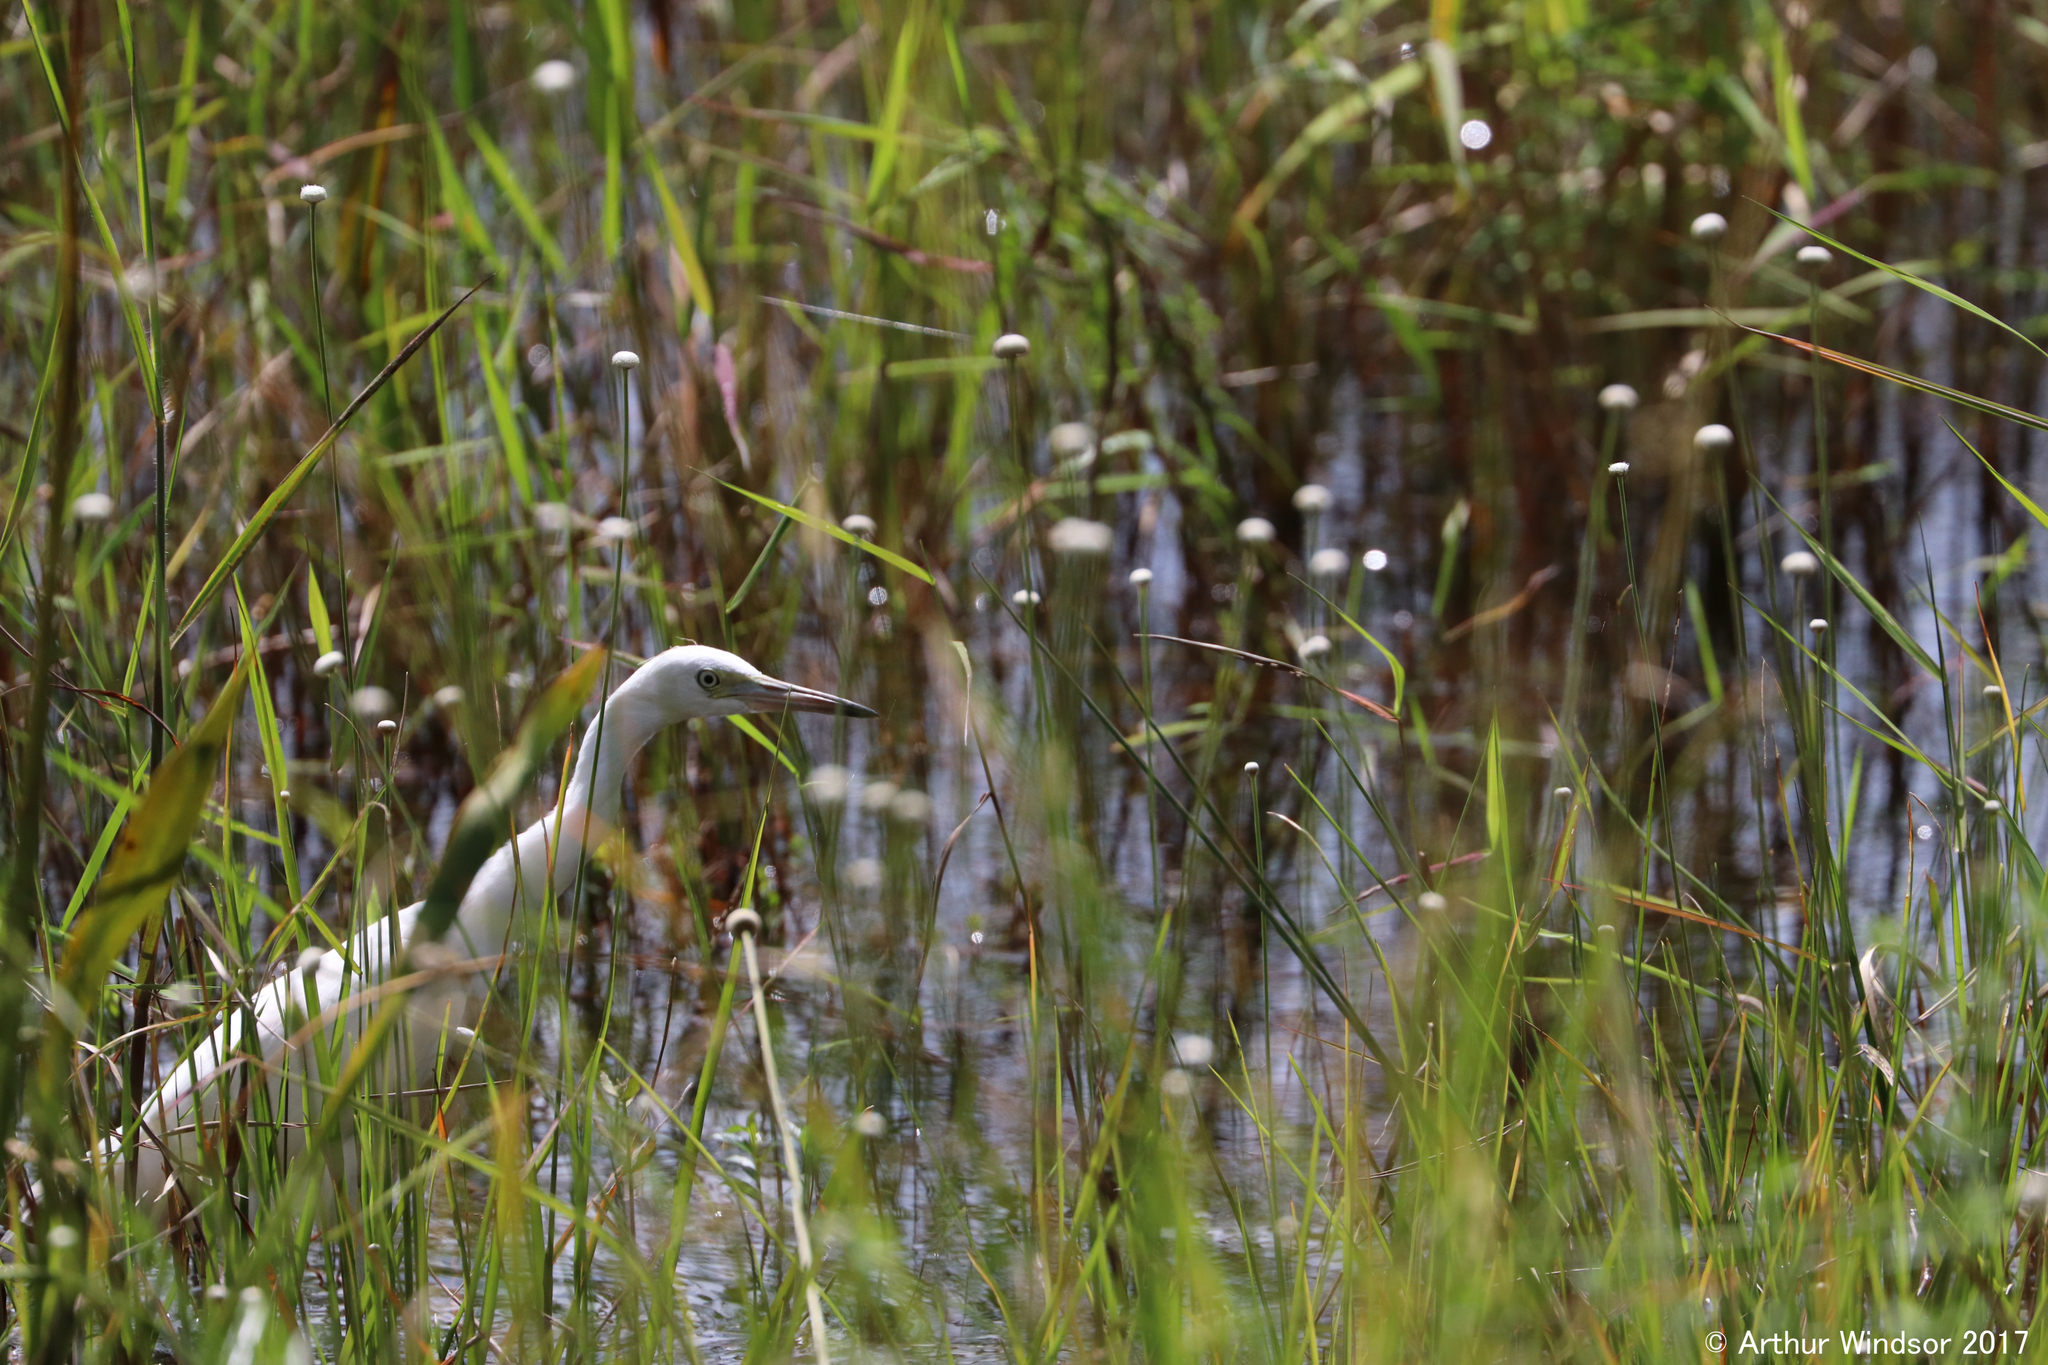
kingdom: Animalia
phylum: Chordata
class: Aves
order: Pelecaniformes
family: Ardeidae
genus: Egretta
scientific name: Egretta caerulea
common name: Little blue heron
